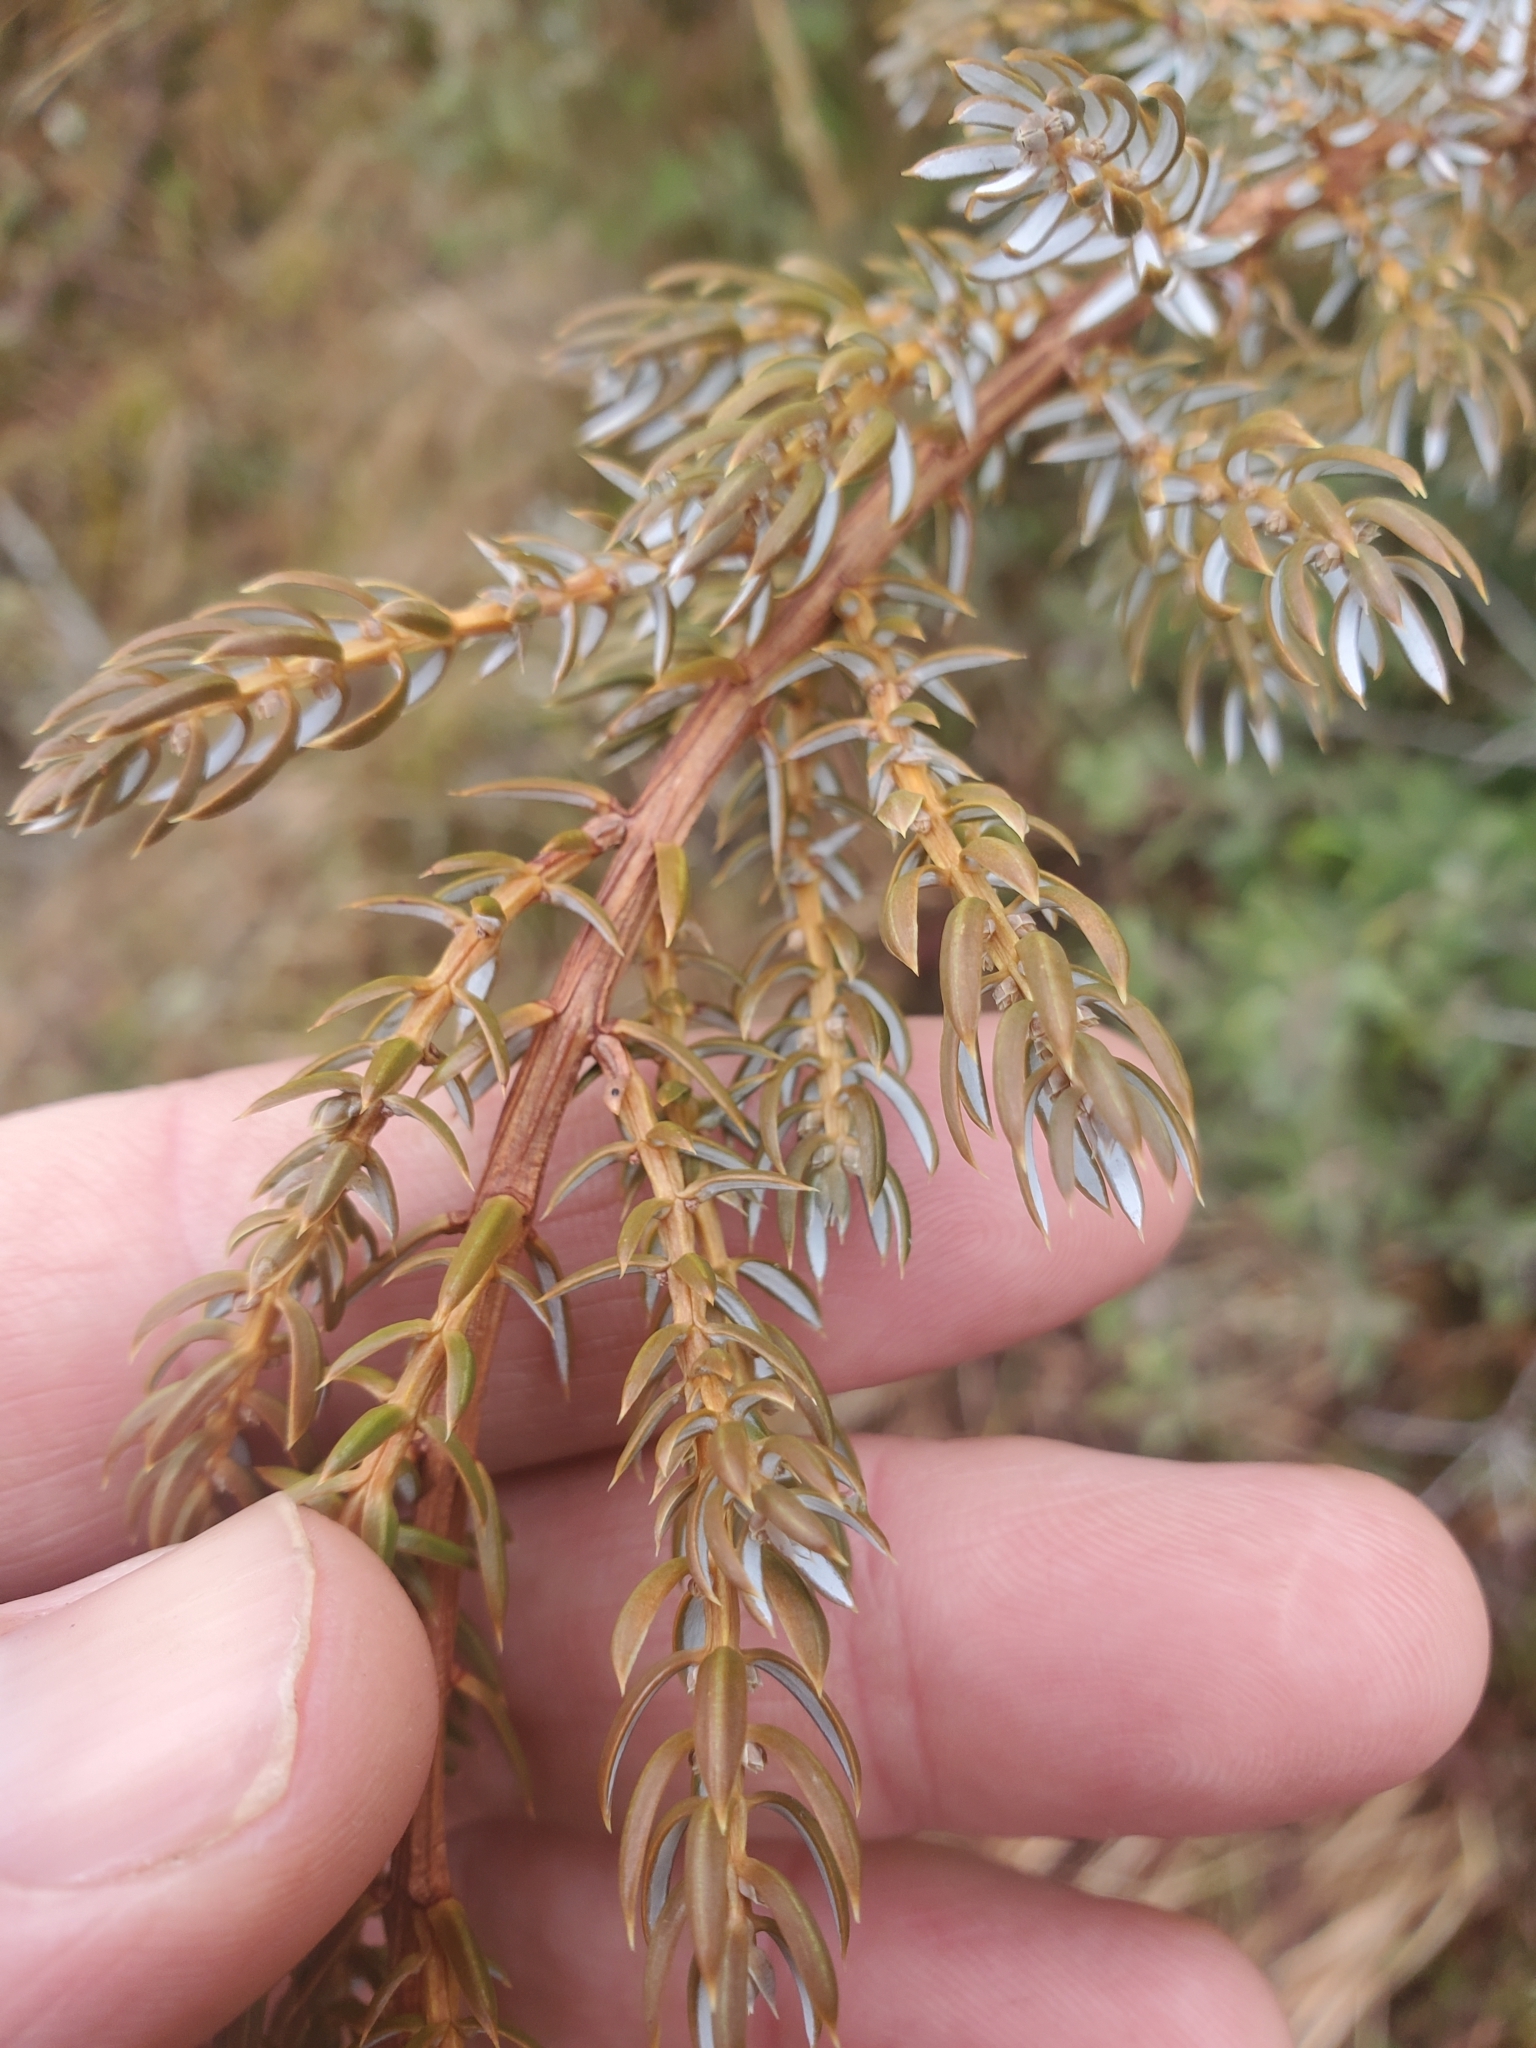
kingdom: Plantae
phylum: Tracheophyta
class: Pinopsida
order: Pinales
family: Cupressaceae
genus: Juniperus
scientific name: Juniperus communis
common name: Common juniper
